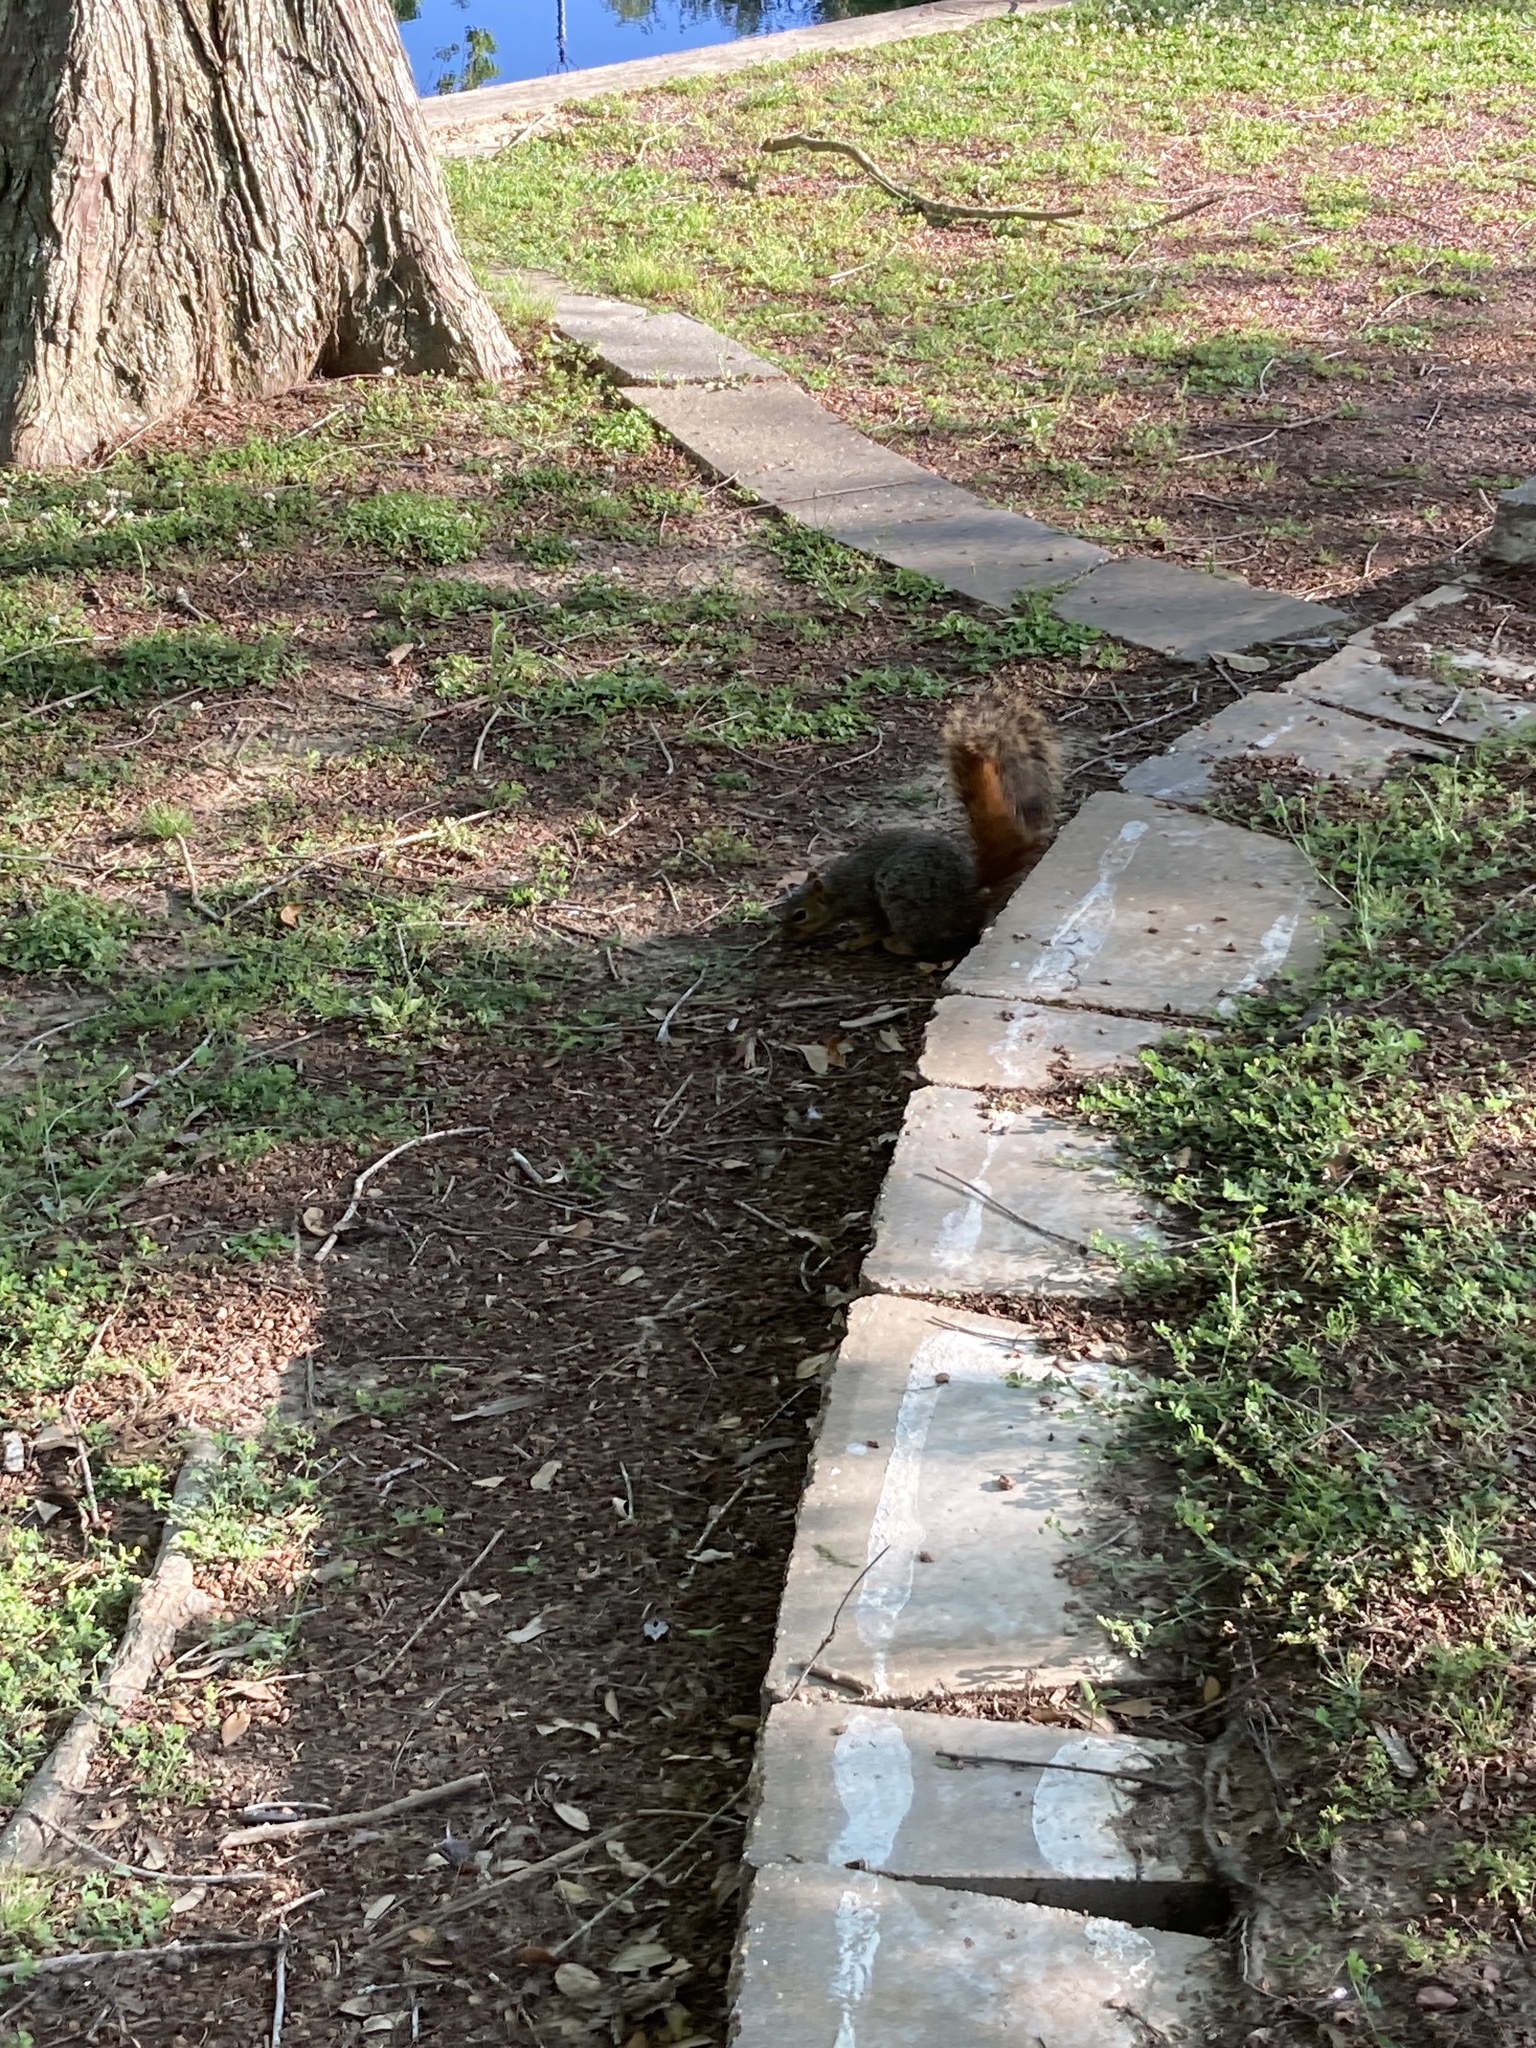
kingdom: Animalia
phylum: Chordata
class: Mammalia
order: Rodentia
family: Sciuridae
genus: Sciurus
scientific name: Sciurus niger
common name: Fox squirrel
